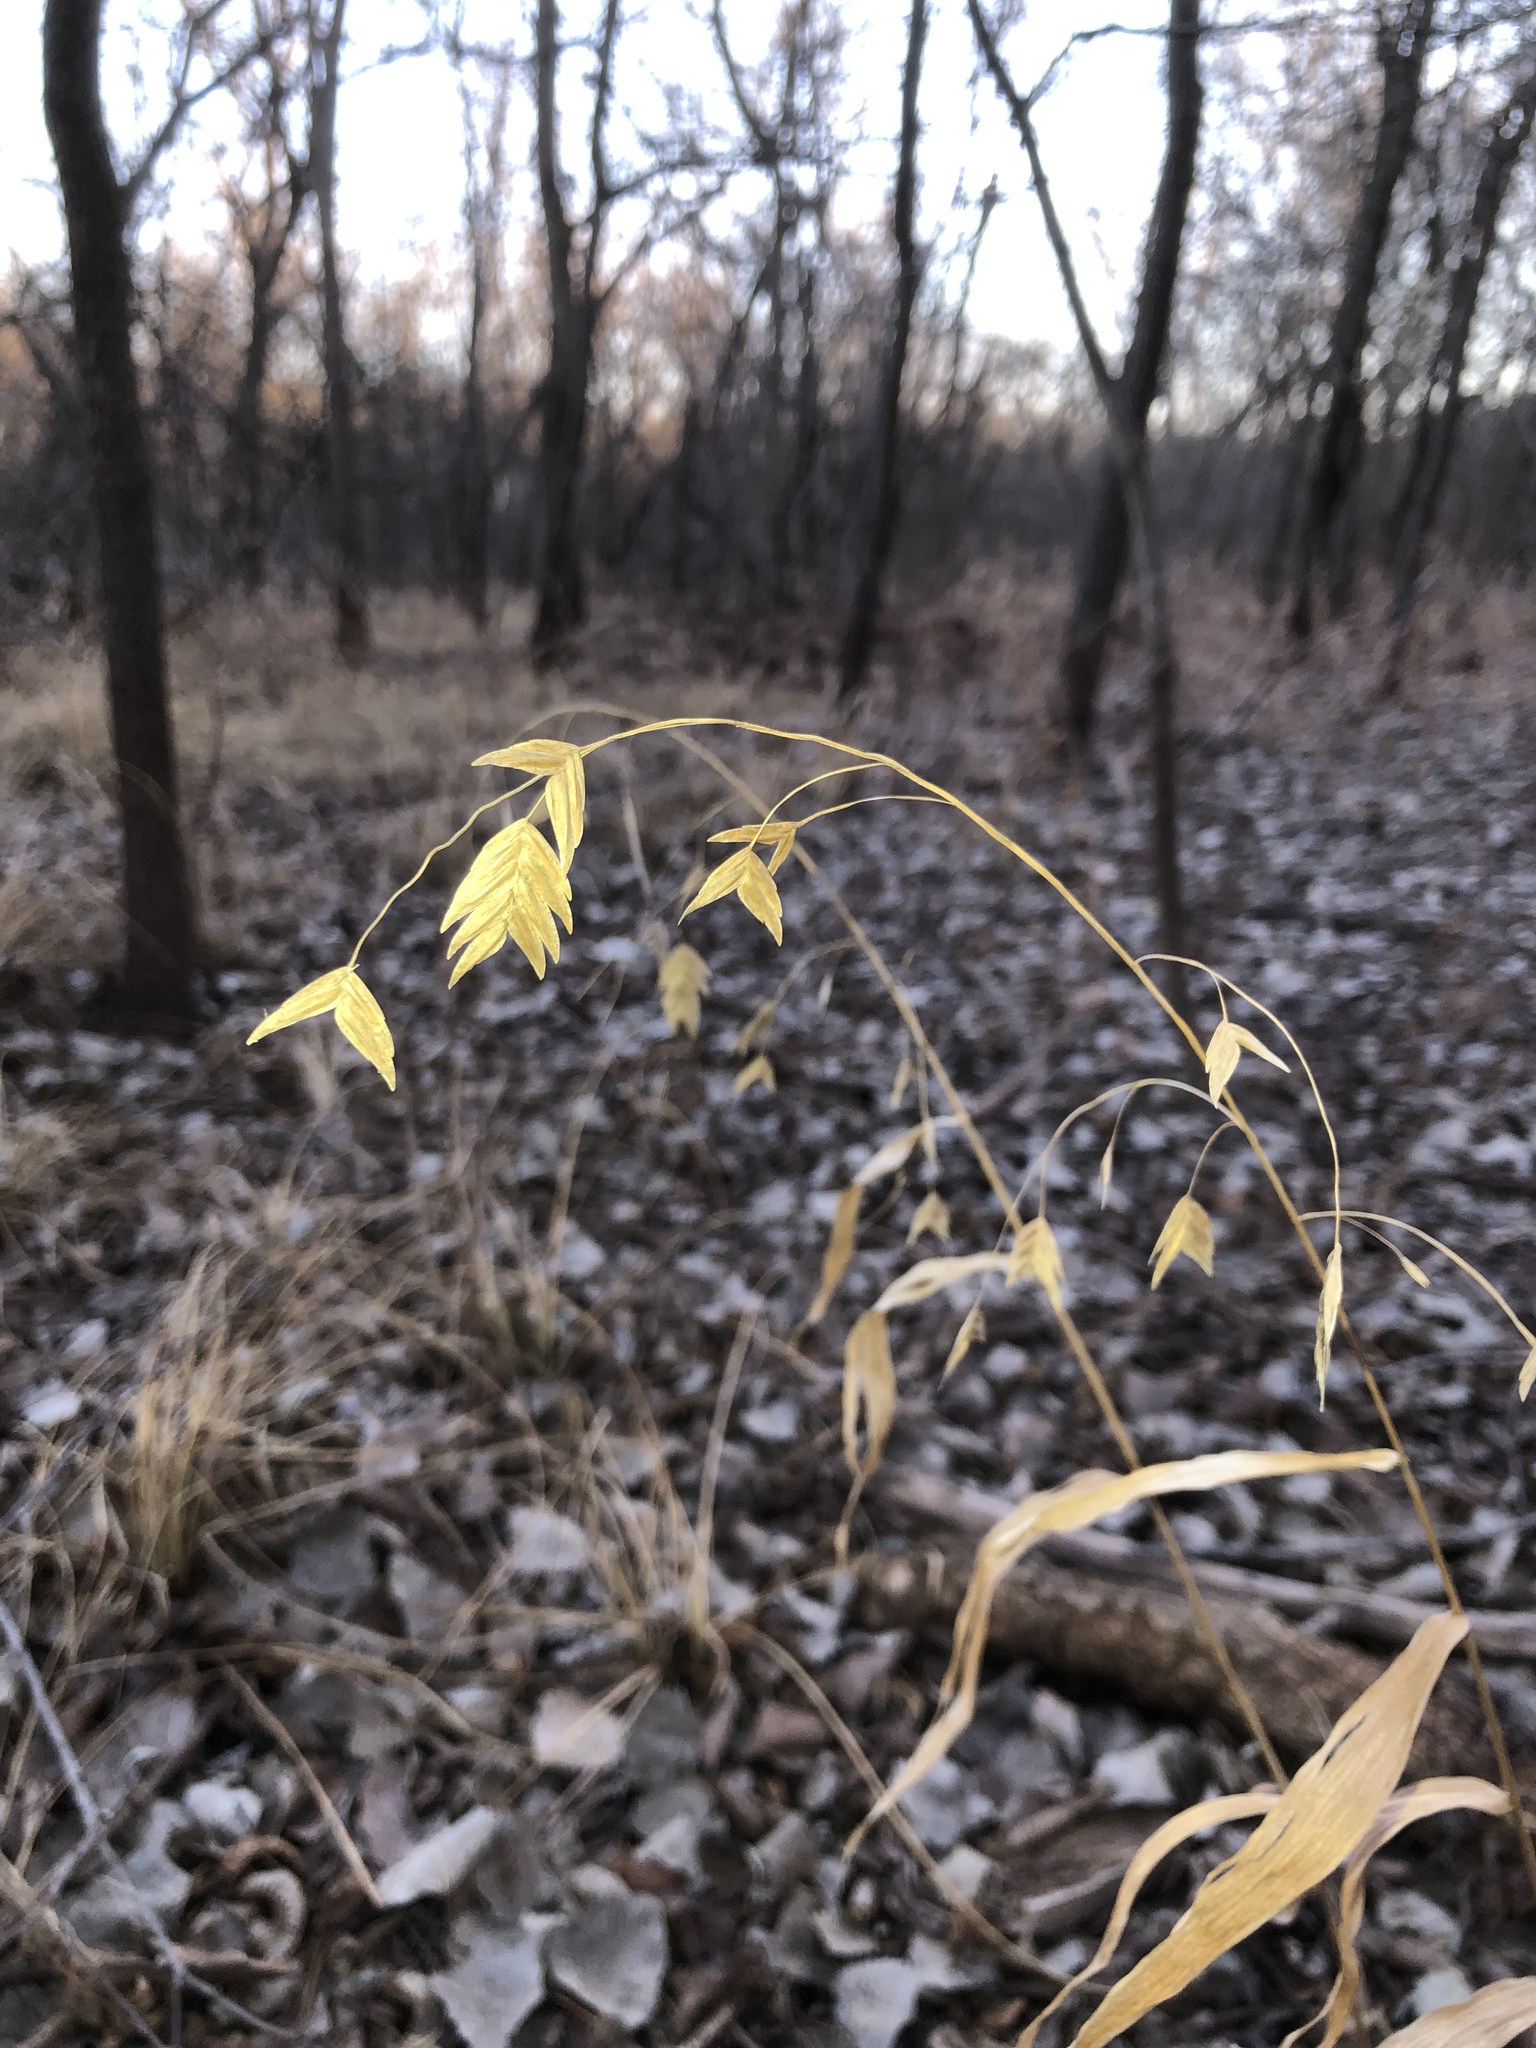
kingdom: Plantae
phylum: Tracheophyta
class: Liliopsida
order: Poales
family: Poaceae
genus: Chasmanthium
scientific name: Chasmanthium latifolium
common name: Broad-leaved chasmanthium
